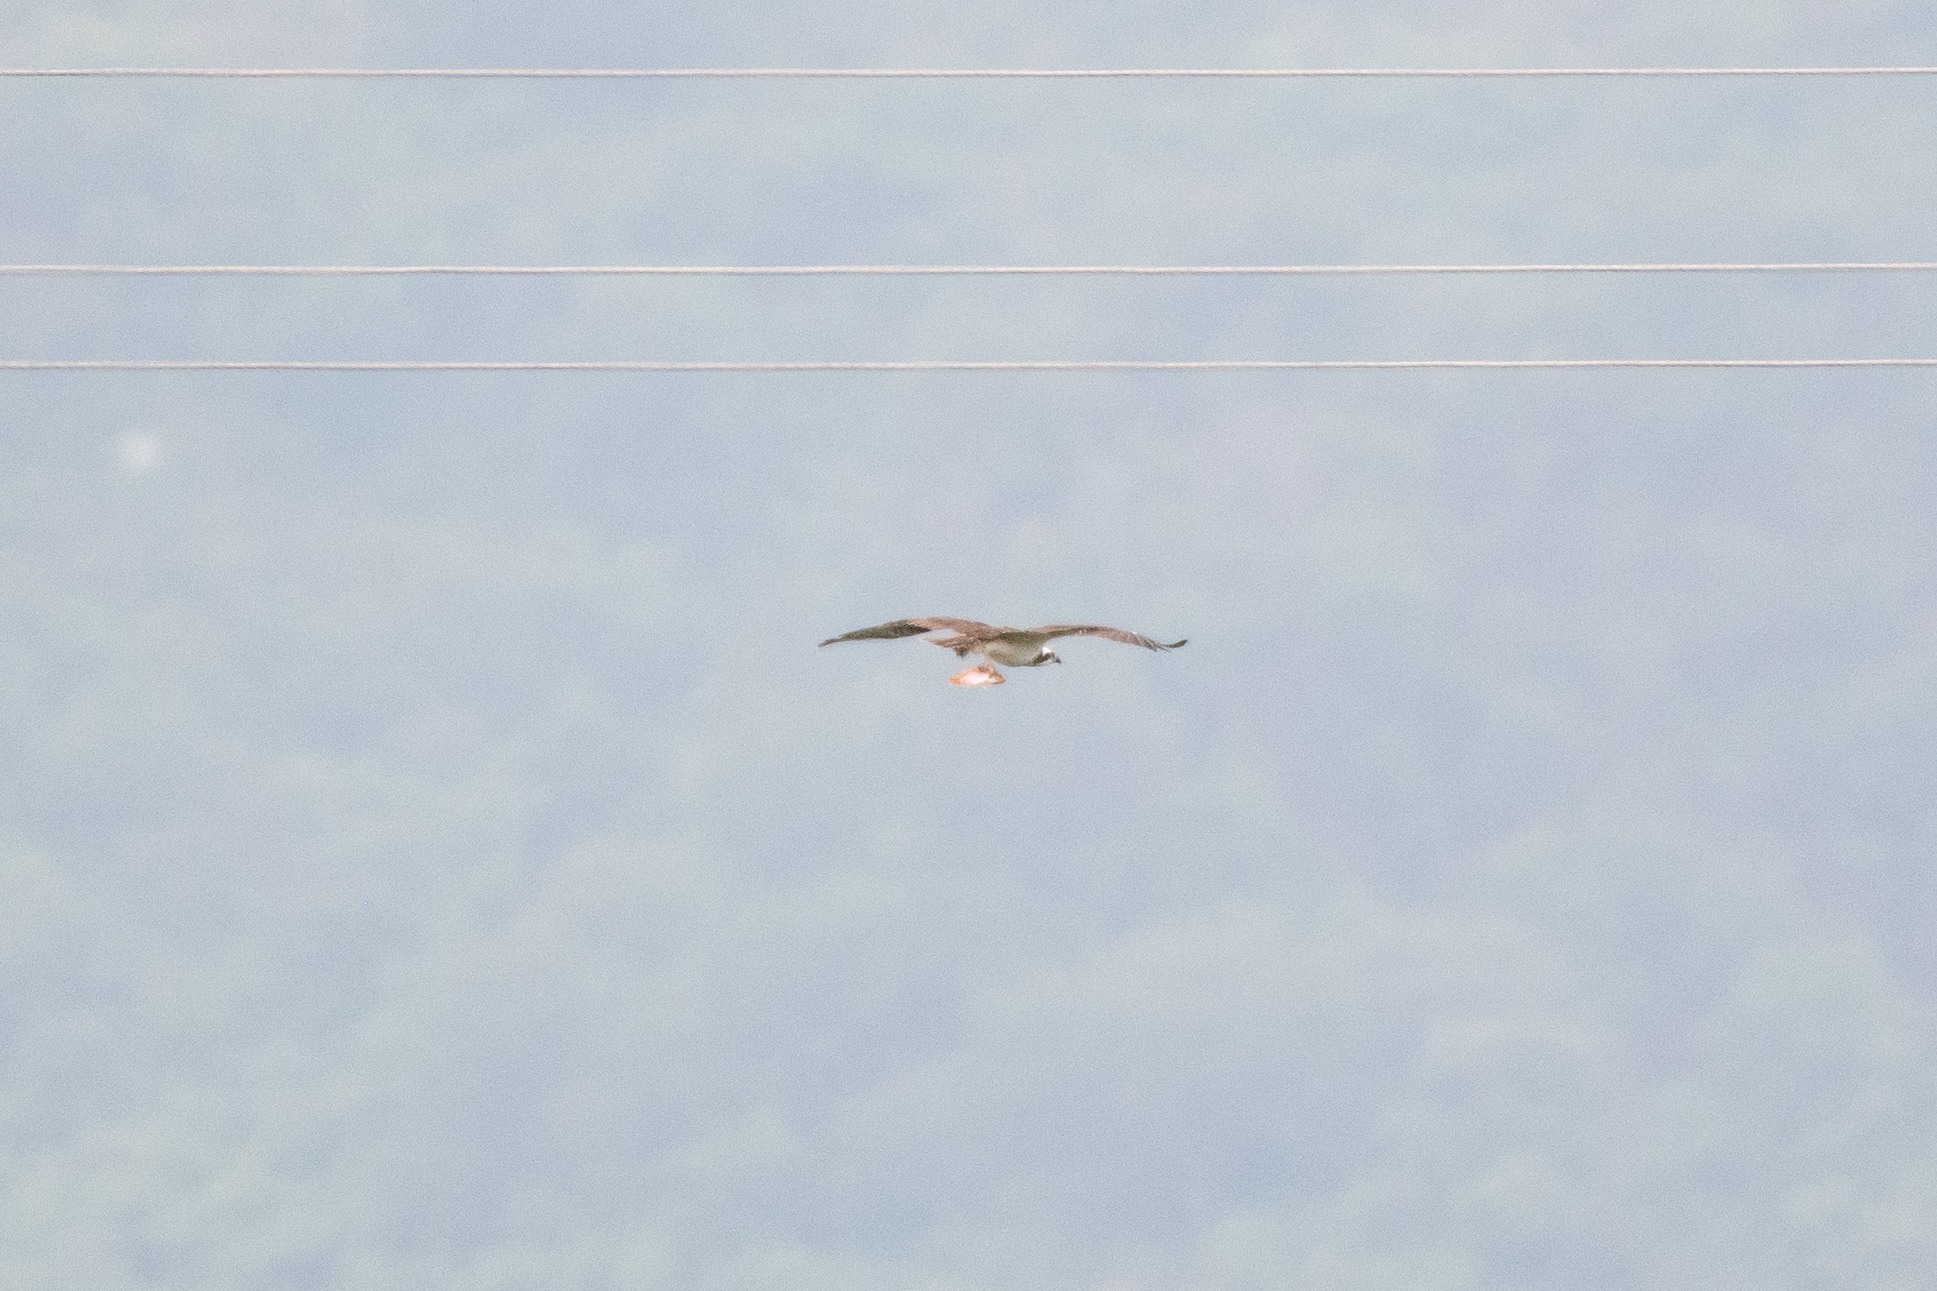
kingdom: Animalia
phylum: Chordata
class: Aves
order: Accipitriformes
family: Pandionidae
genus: Pandion
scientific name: Pandion haliaetus
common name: Osprey
